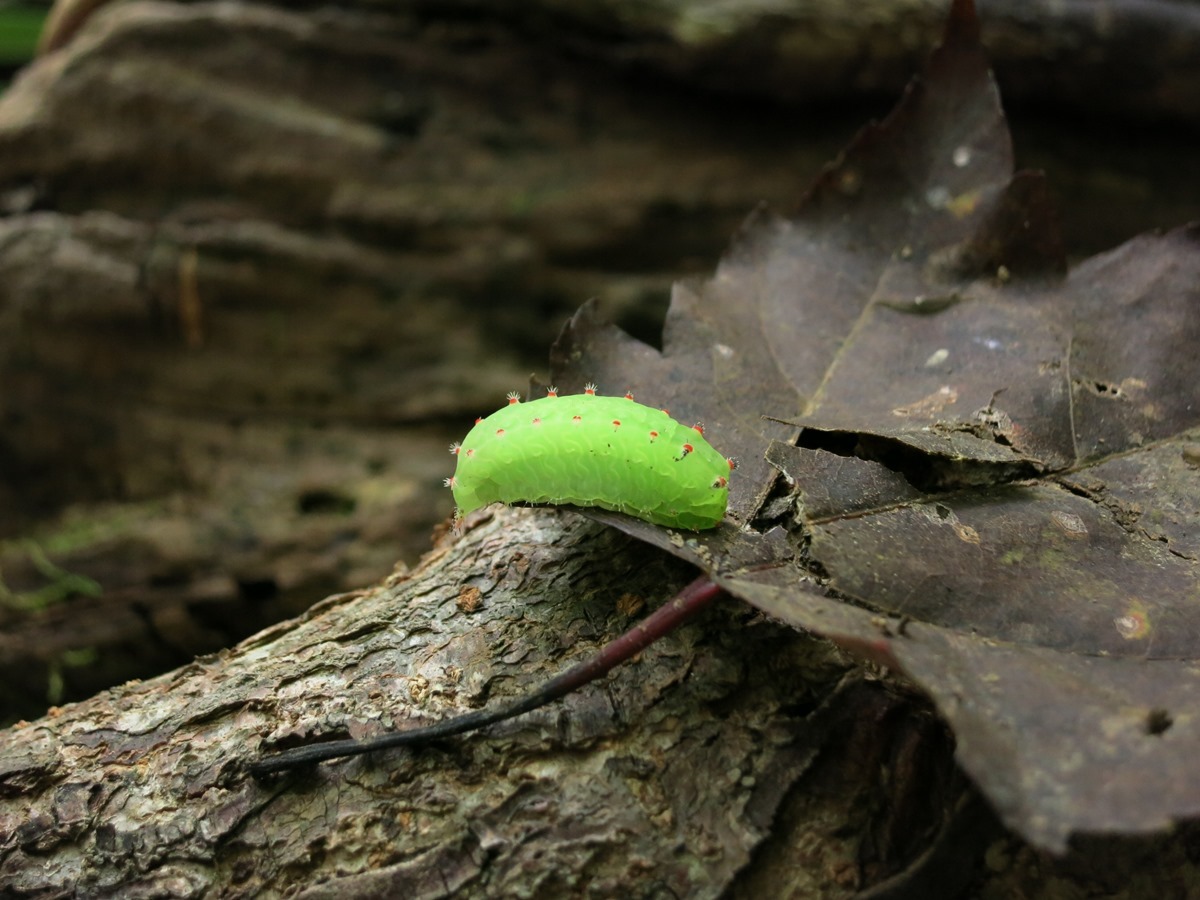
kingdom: Animalia
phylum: Arthropoda
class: Insecta
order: Lepidoptera
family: Limacodidae
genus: Natada
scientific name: Natada nasoni
